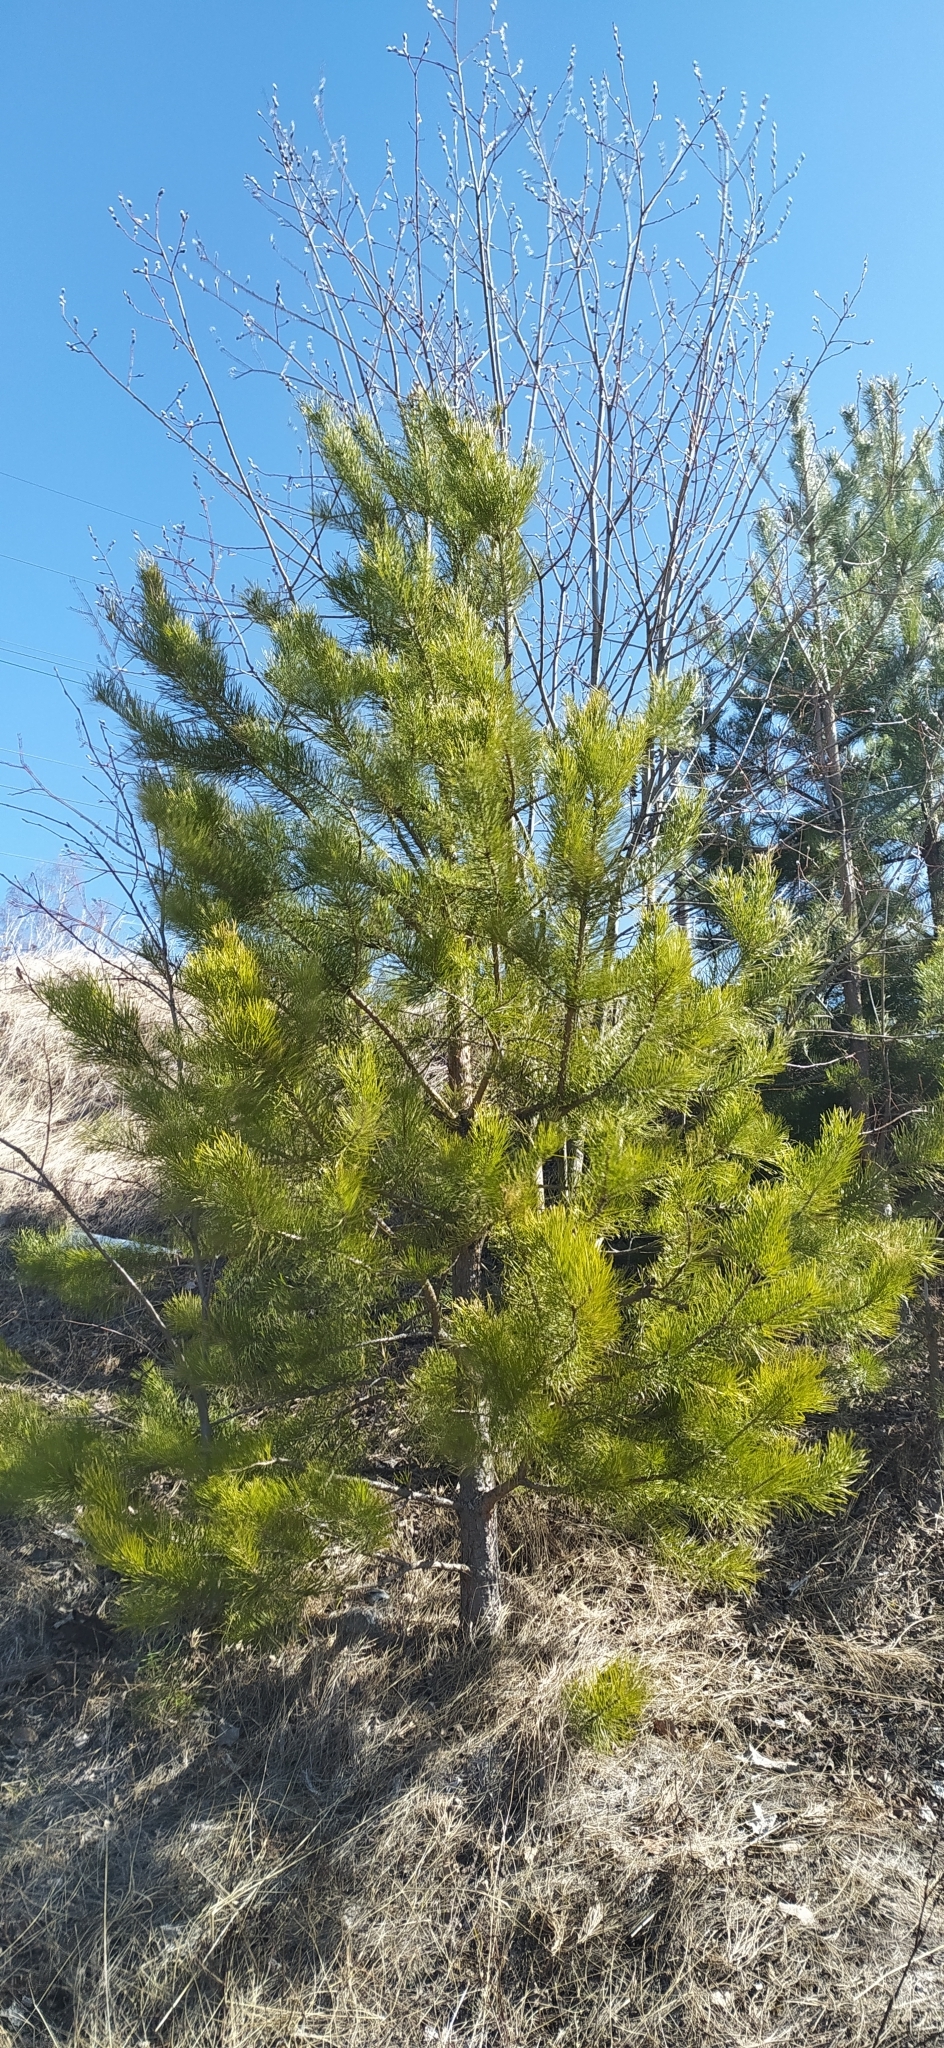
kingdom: Plantae
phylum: Tracheophyta
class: Pinopsida
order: Pinales
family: Pinaceae
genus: Pinus
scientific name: Pinus sylvestris
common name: Scots pine
